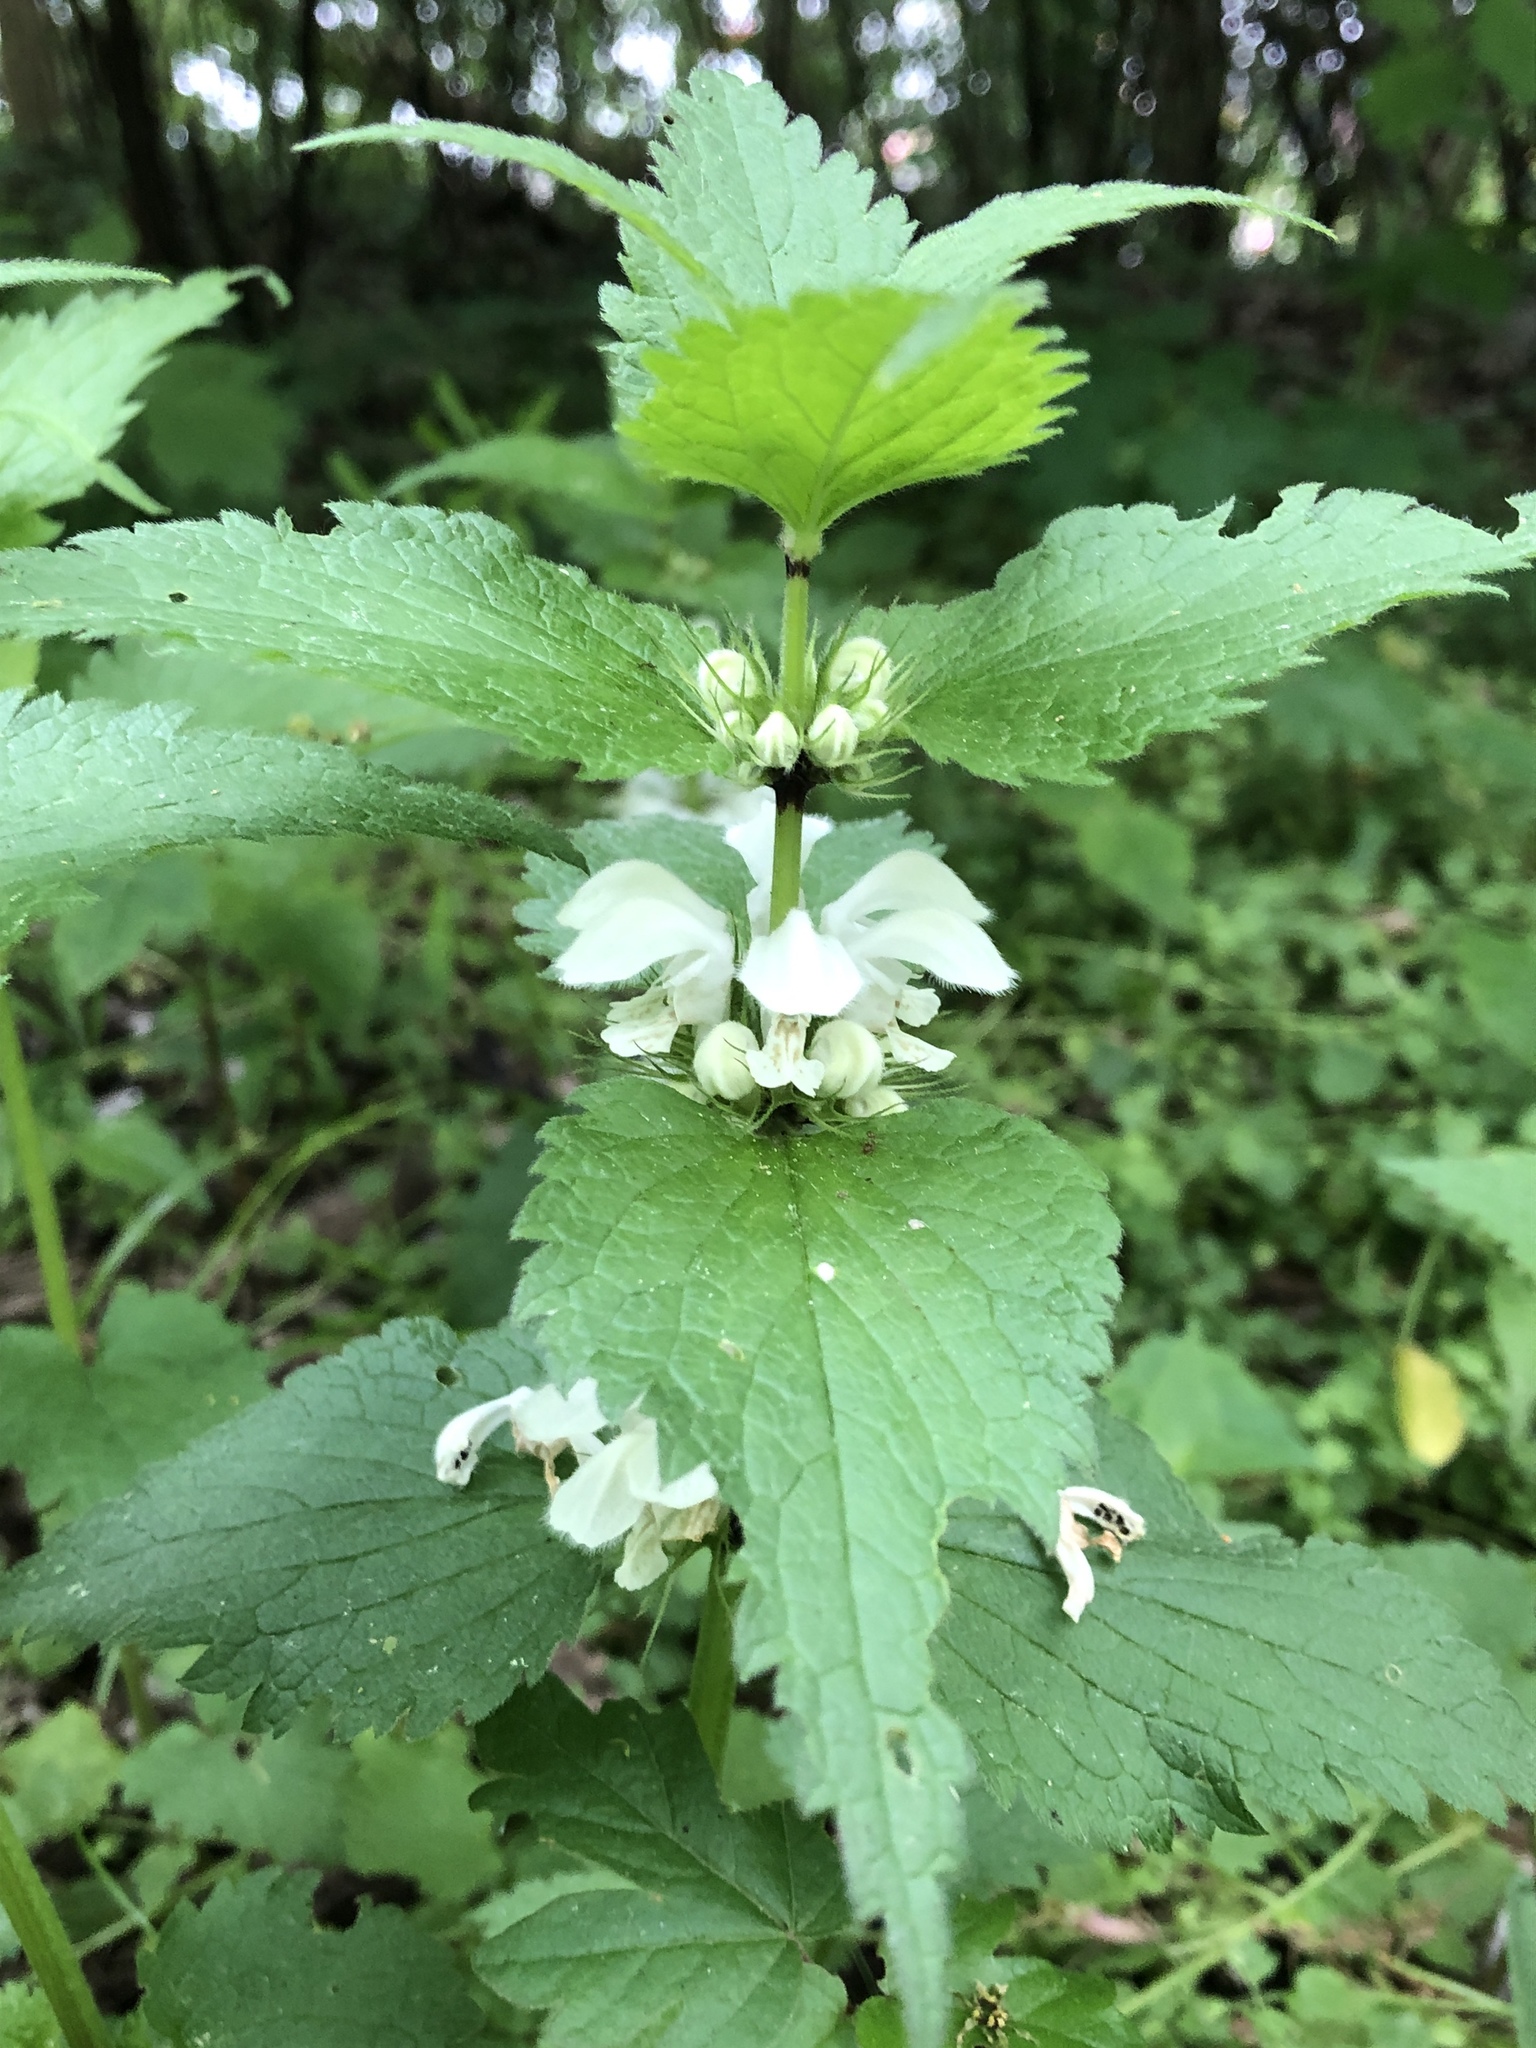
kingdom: Plantae
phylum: Tracheophyta
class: Magnoliopsida
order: Lamiales
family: Lamiaceae
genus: Lamium
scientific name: Lamium album
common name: White dead-nettle
